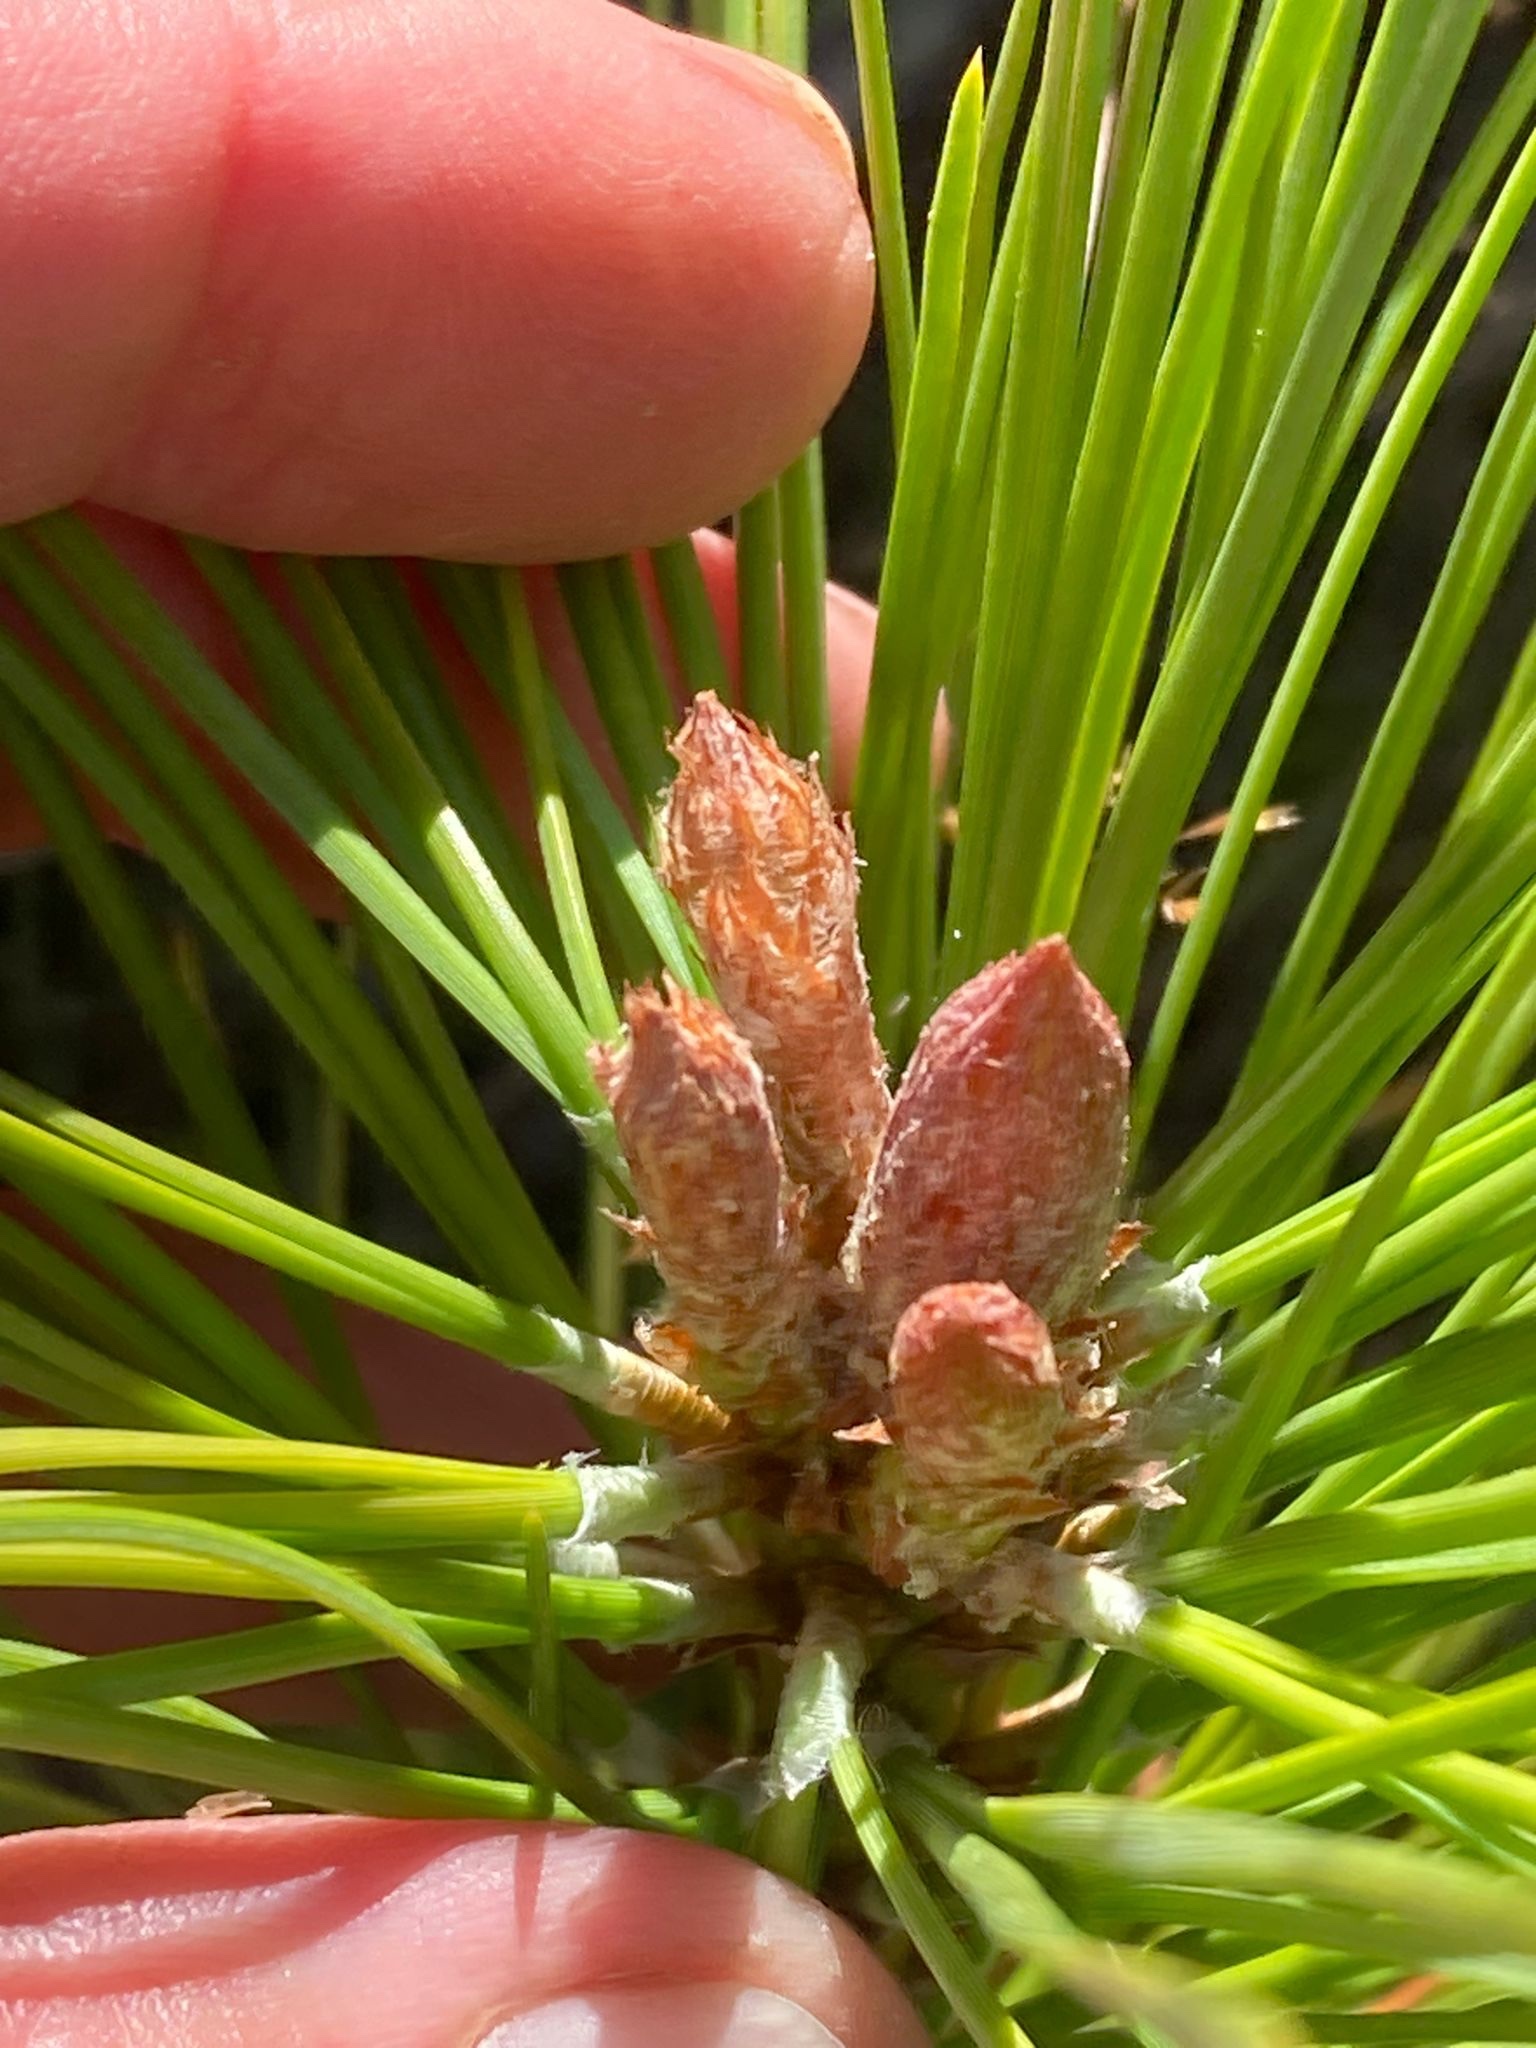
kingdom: Plantae
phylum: Tracheophyta
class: Pinopsida
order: Pinales
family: Pinaceae
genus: Pinus
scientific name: Pinus ponderosa
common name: Western yellow-pine
